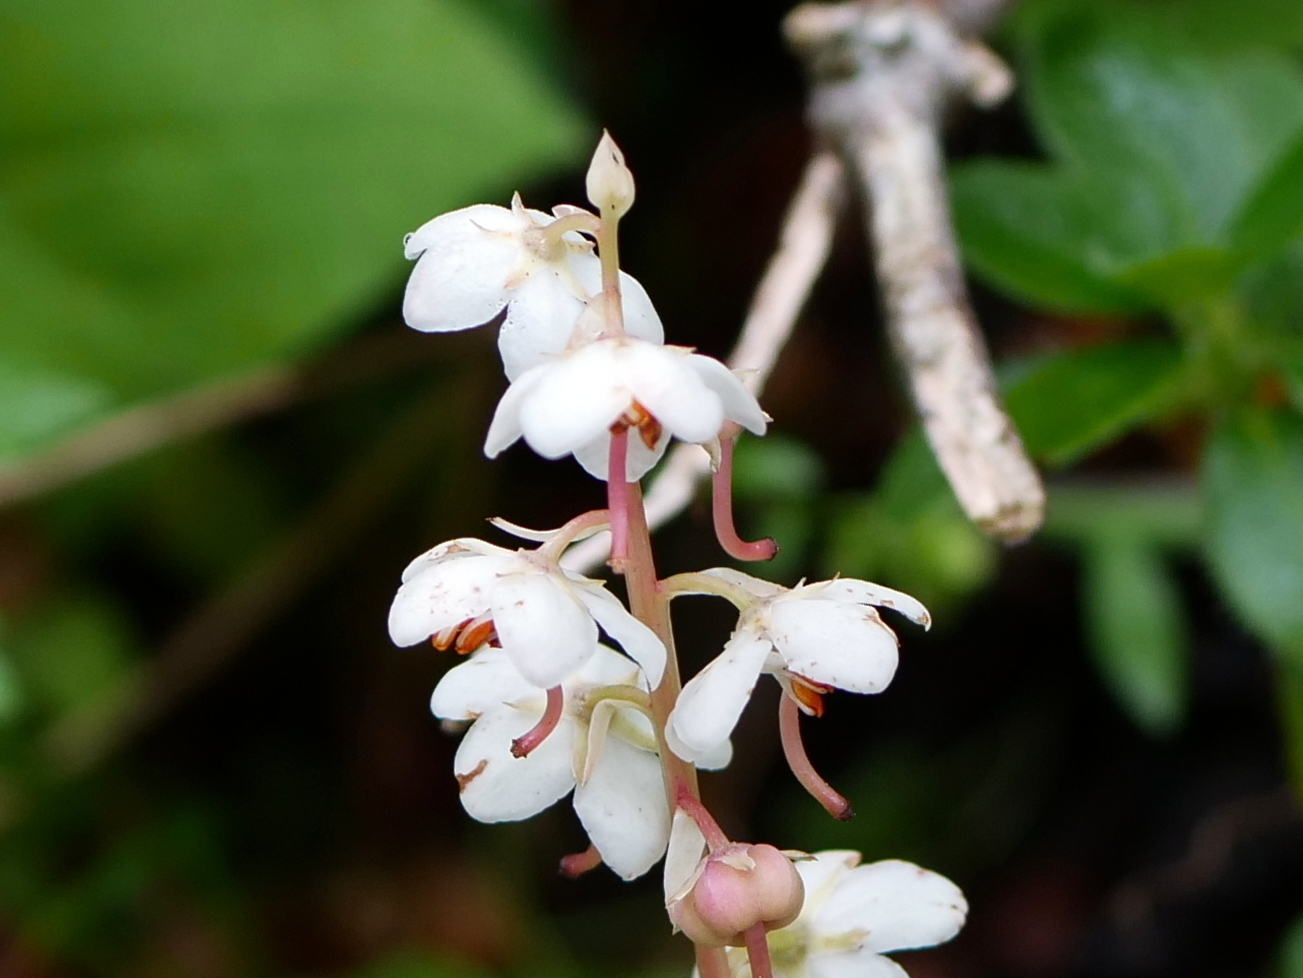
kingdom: Plantae
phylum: Tracheophyta
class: Magnoliopsida
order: Ericales
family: Ericaceae
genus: Pyrola
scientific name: Pyrola rotundifolia
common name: Round-leaved wintergreen
